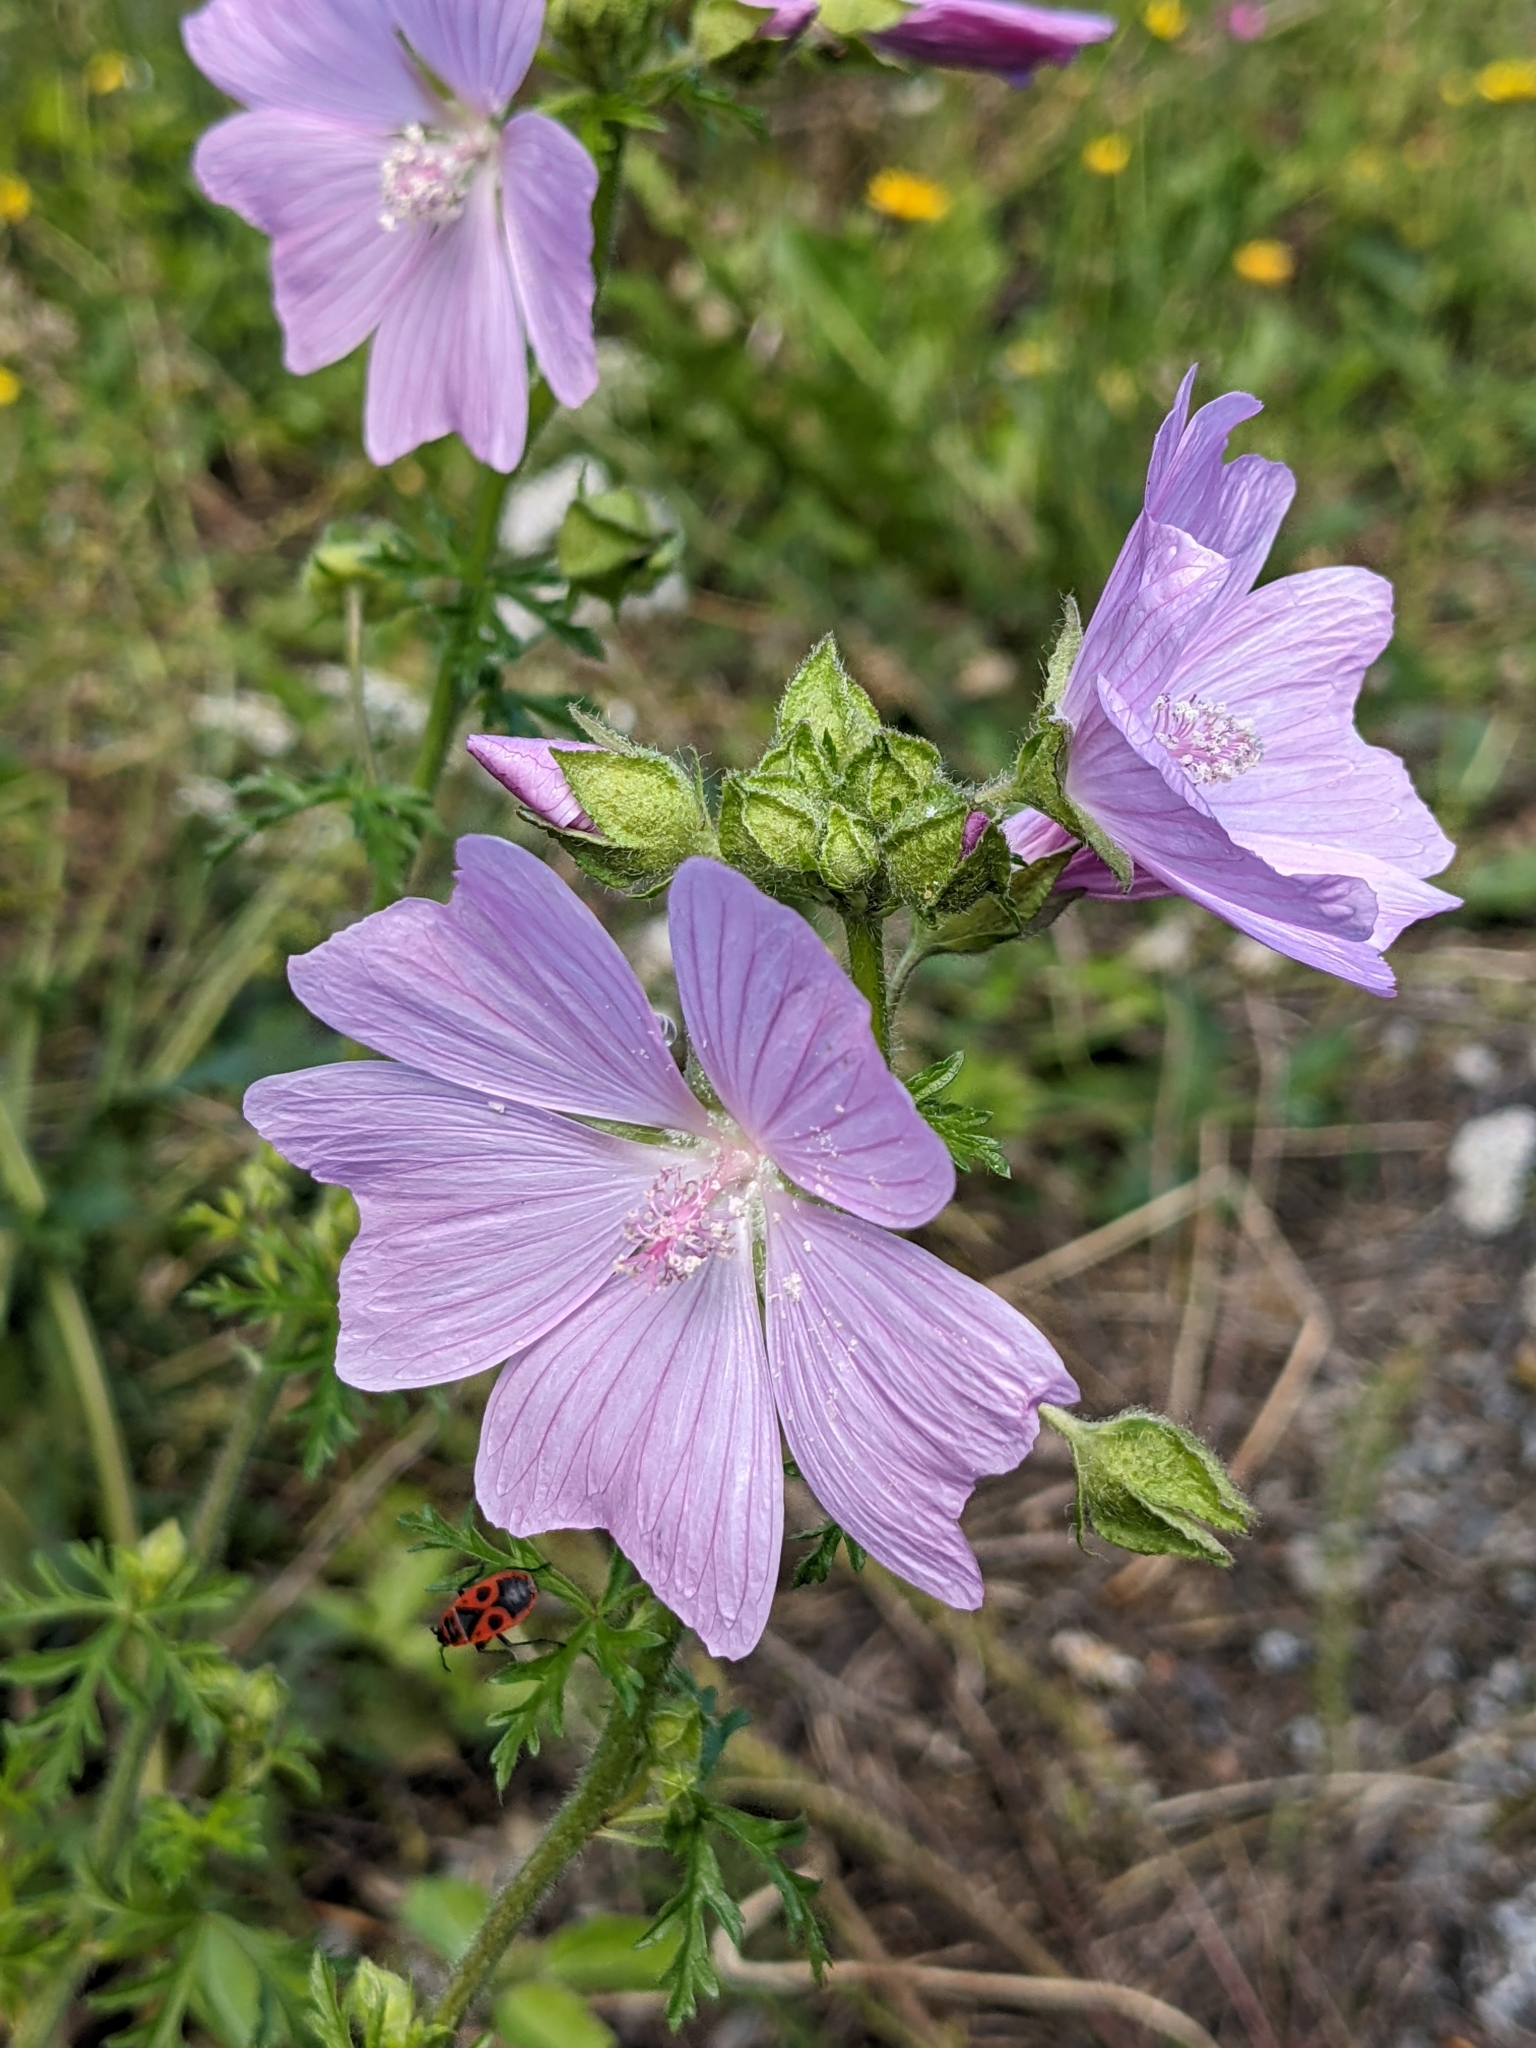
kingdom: Plantae
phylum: Tracheophyta
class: Magnoliopsida
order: Malvales
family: Malvaceae
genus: Malva
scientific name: Malva moschata
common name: Musk mallow
